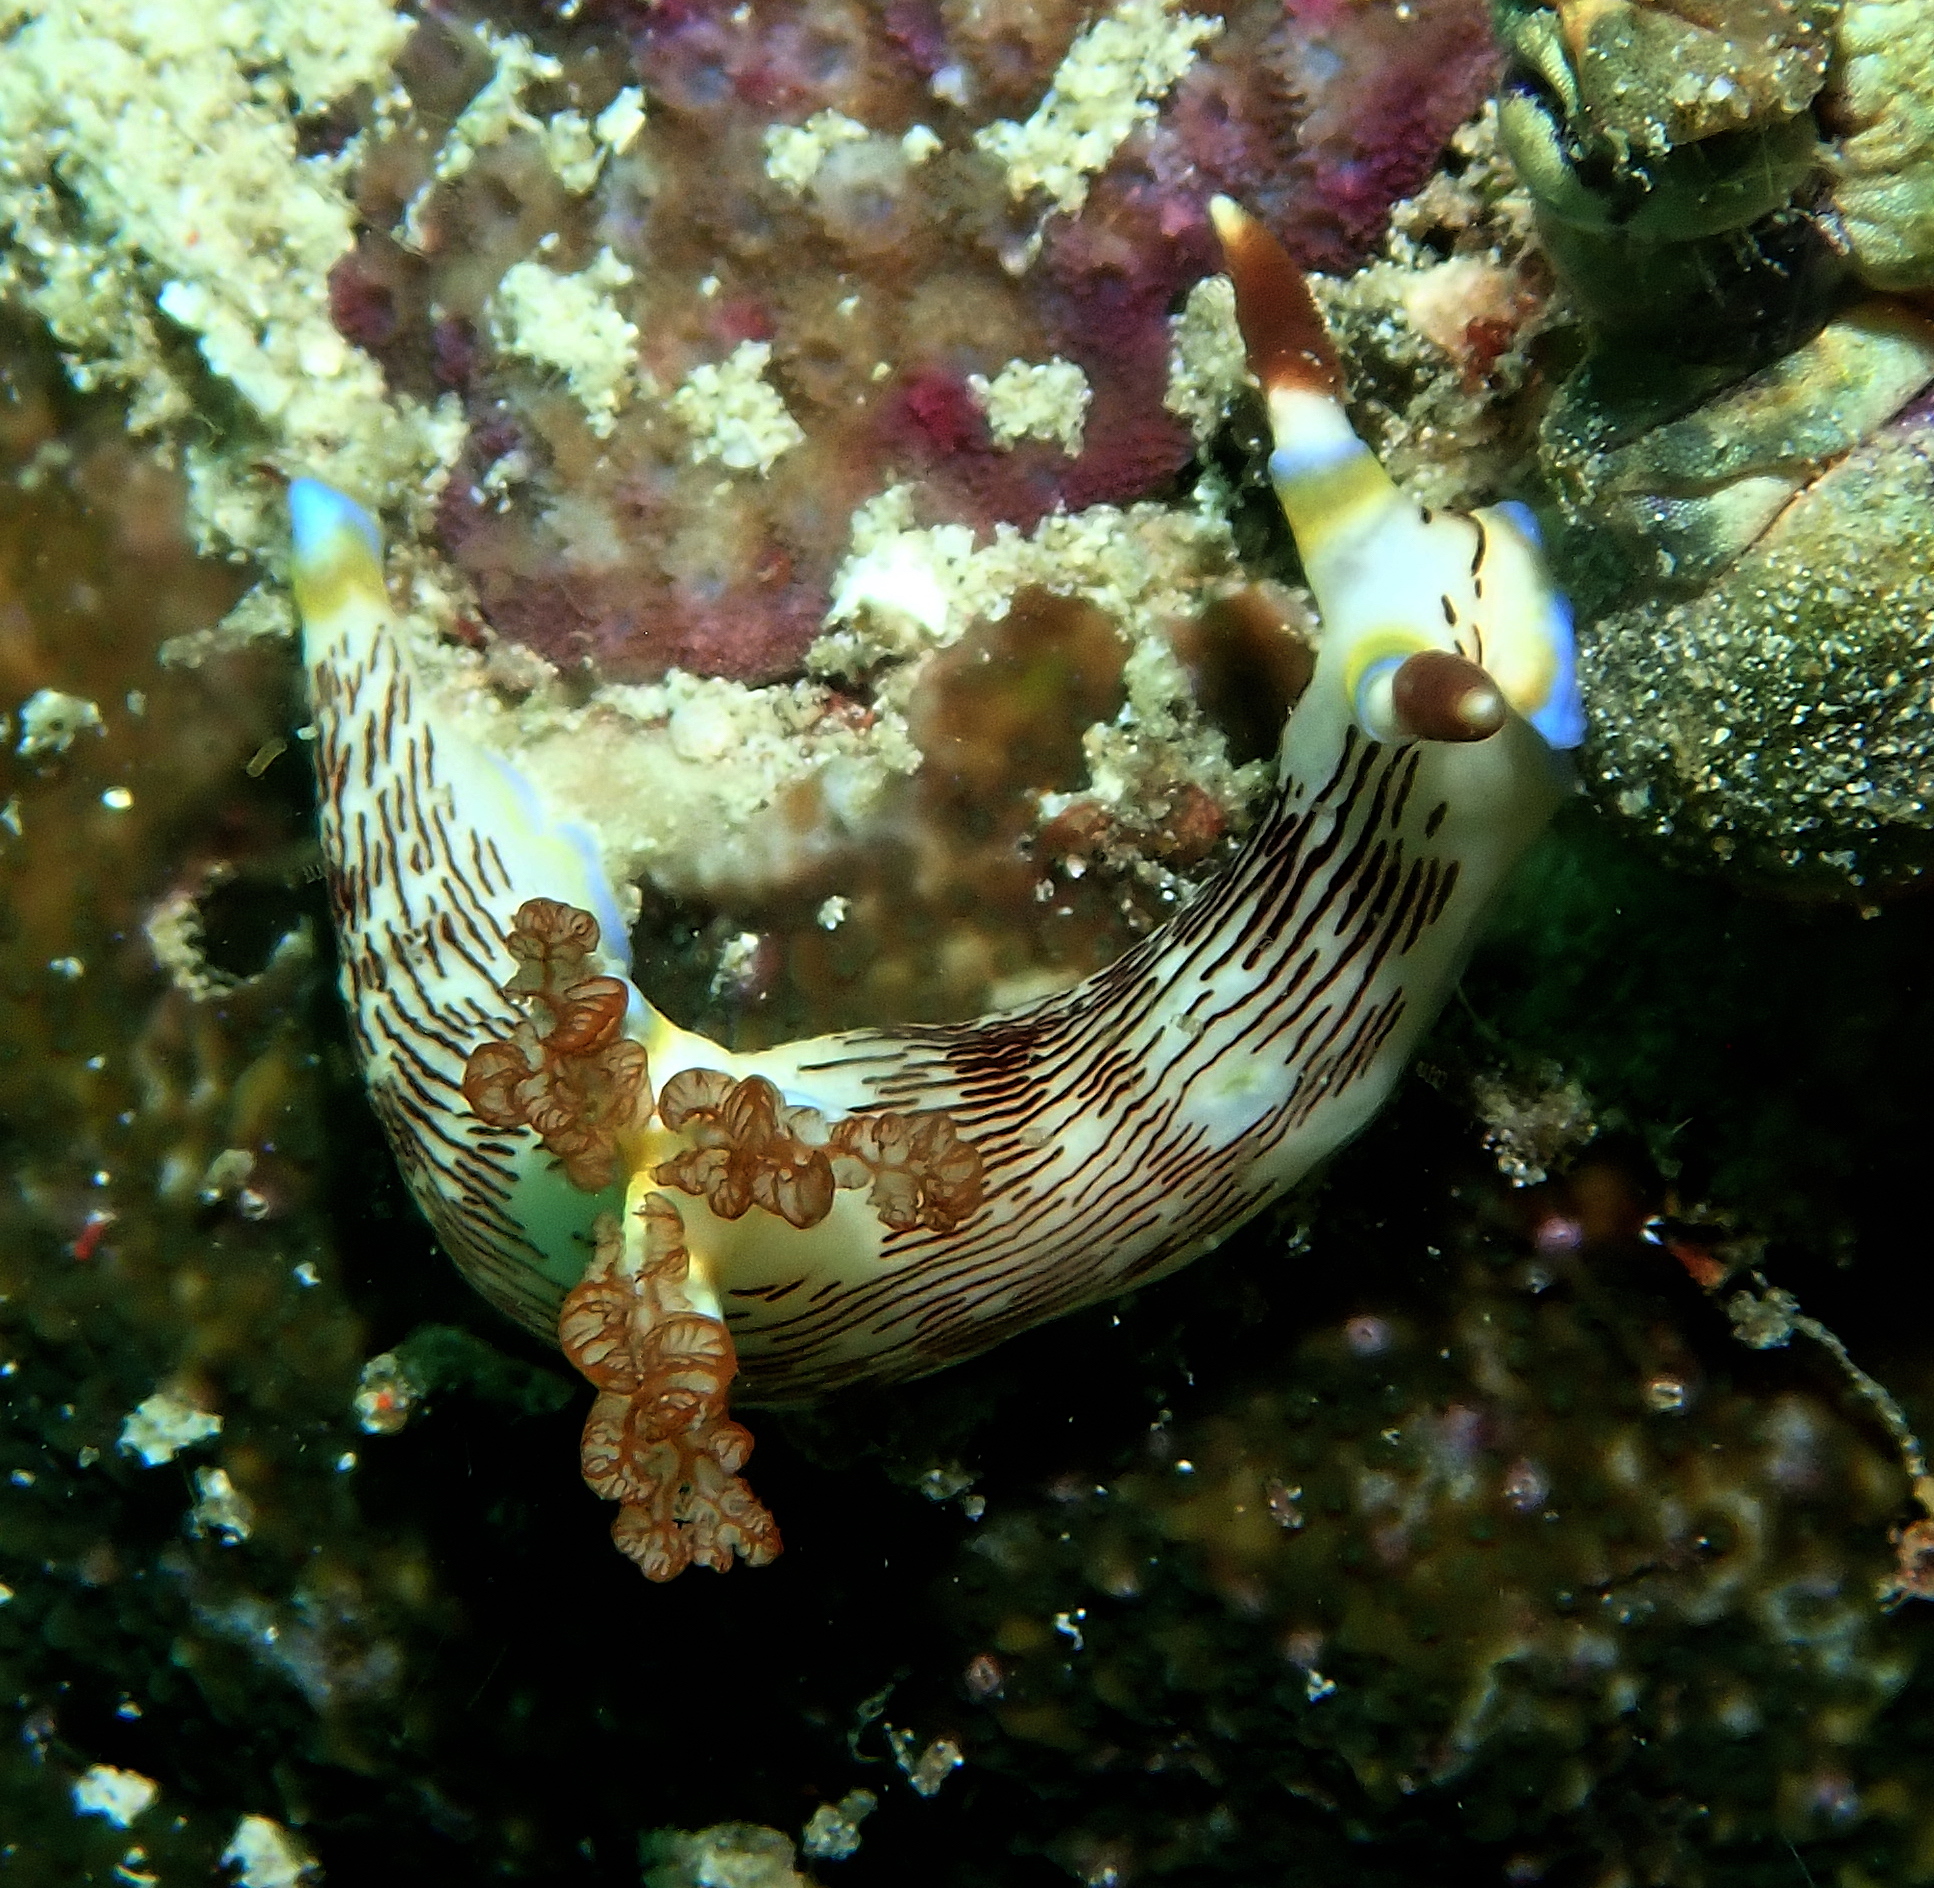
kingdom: Animalia
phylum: Mollusca
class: Gastropoda
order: Nudibranchia
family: Polyceridae
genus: Nembrotha
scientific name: Nembrotha lineolata
